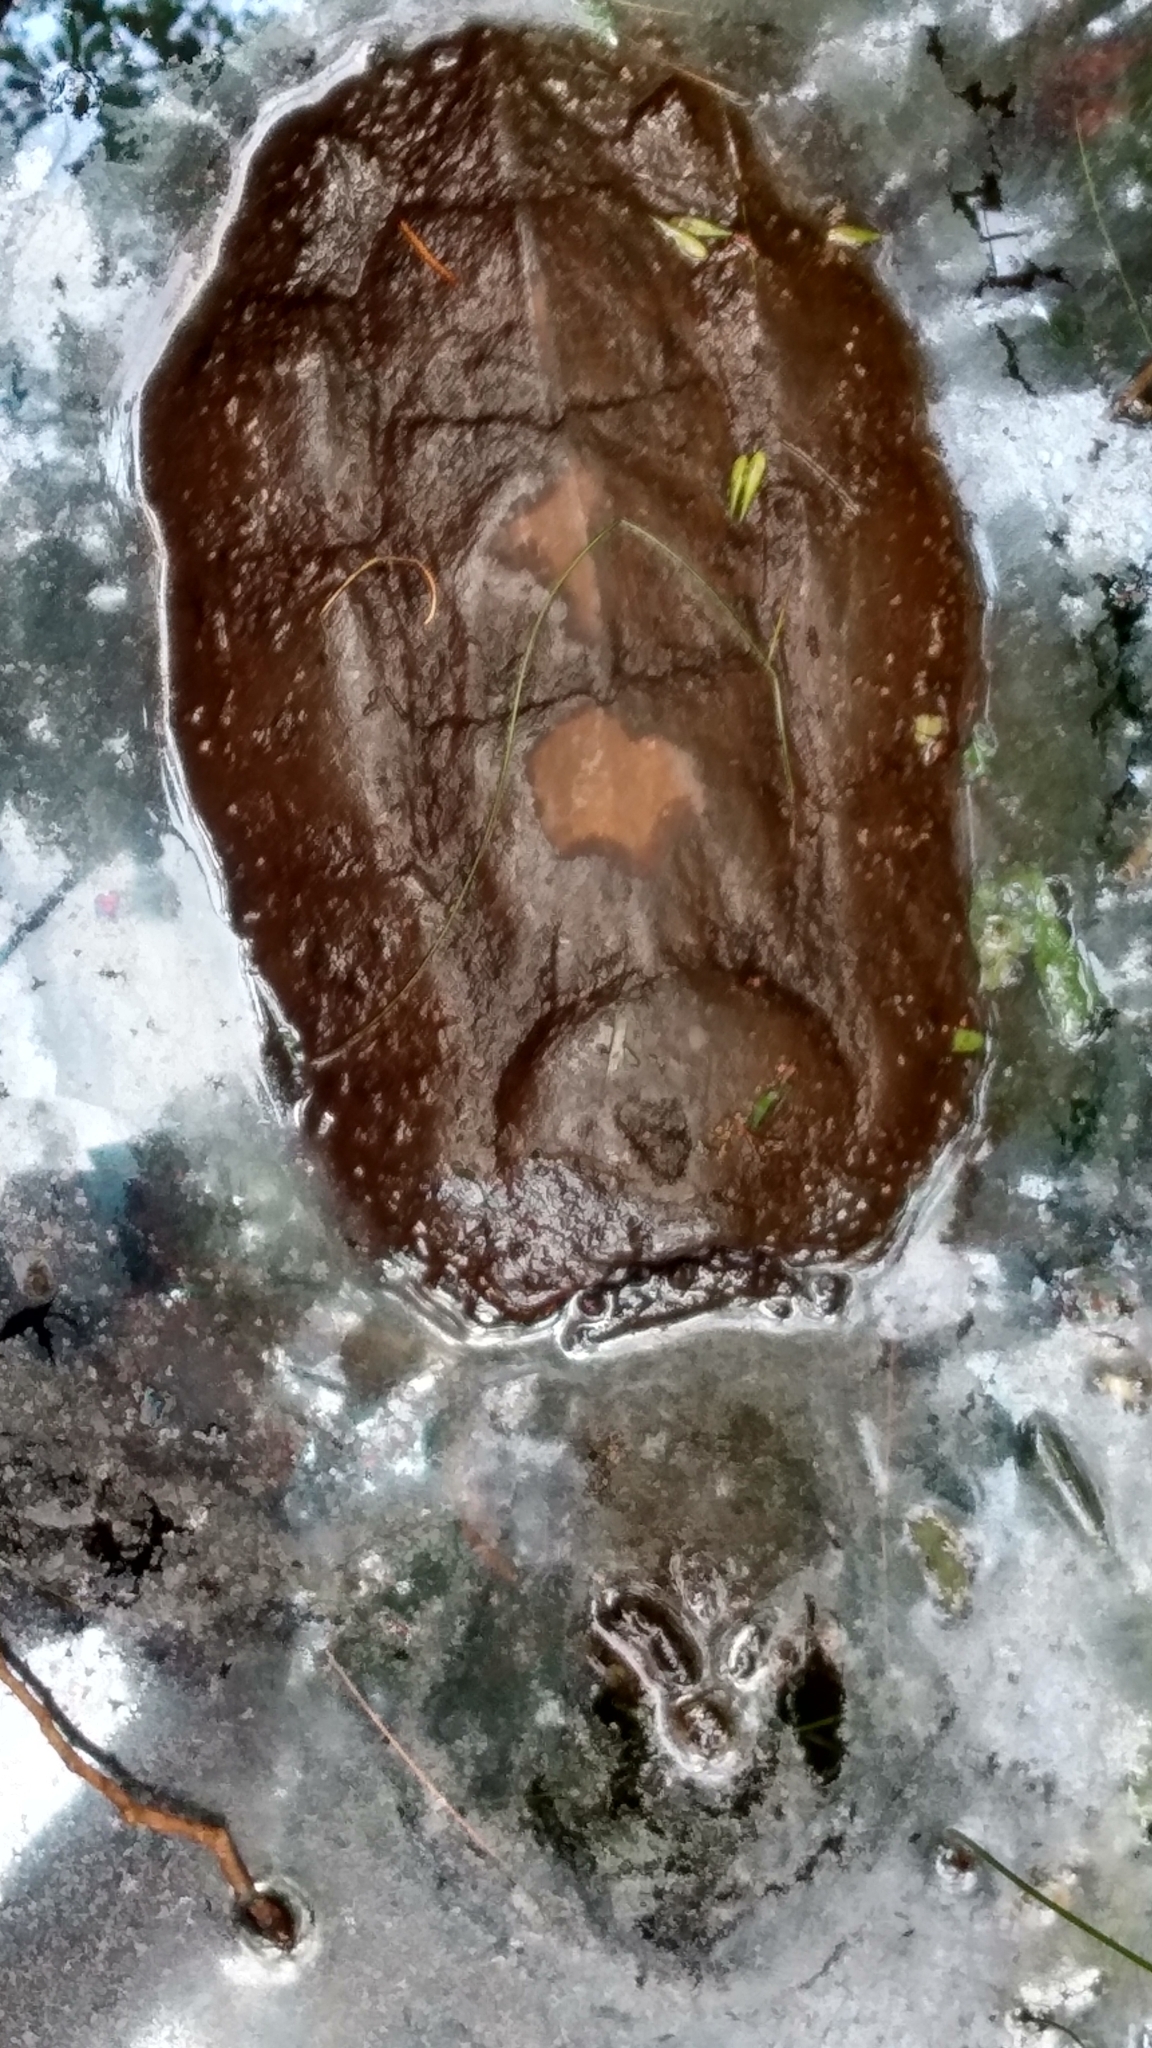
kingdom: Animalia
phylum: Chordata
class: Testudines
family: Chelydridae
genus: Chelydra
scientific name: Chelydra serpentina
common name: Common snapping turtle
